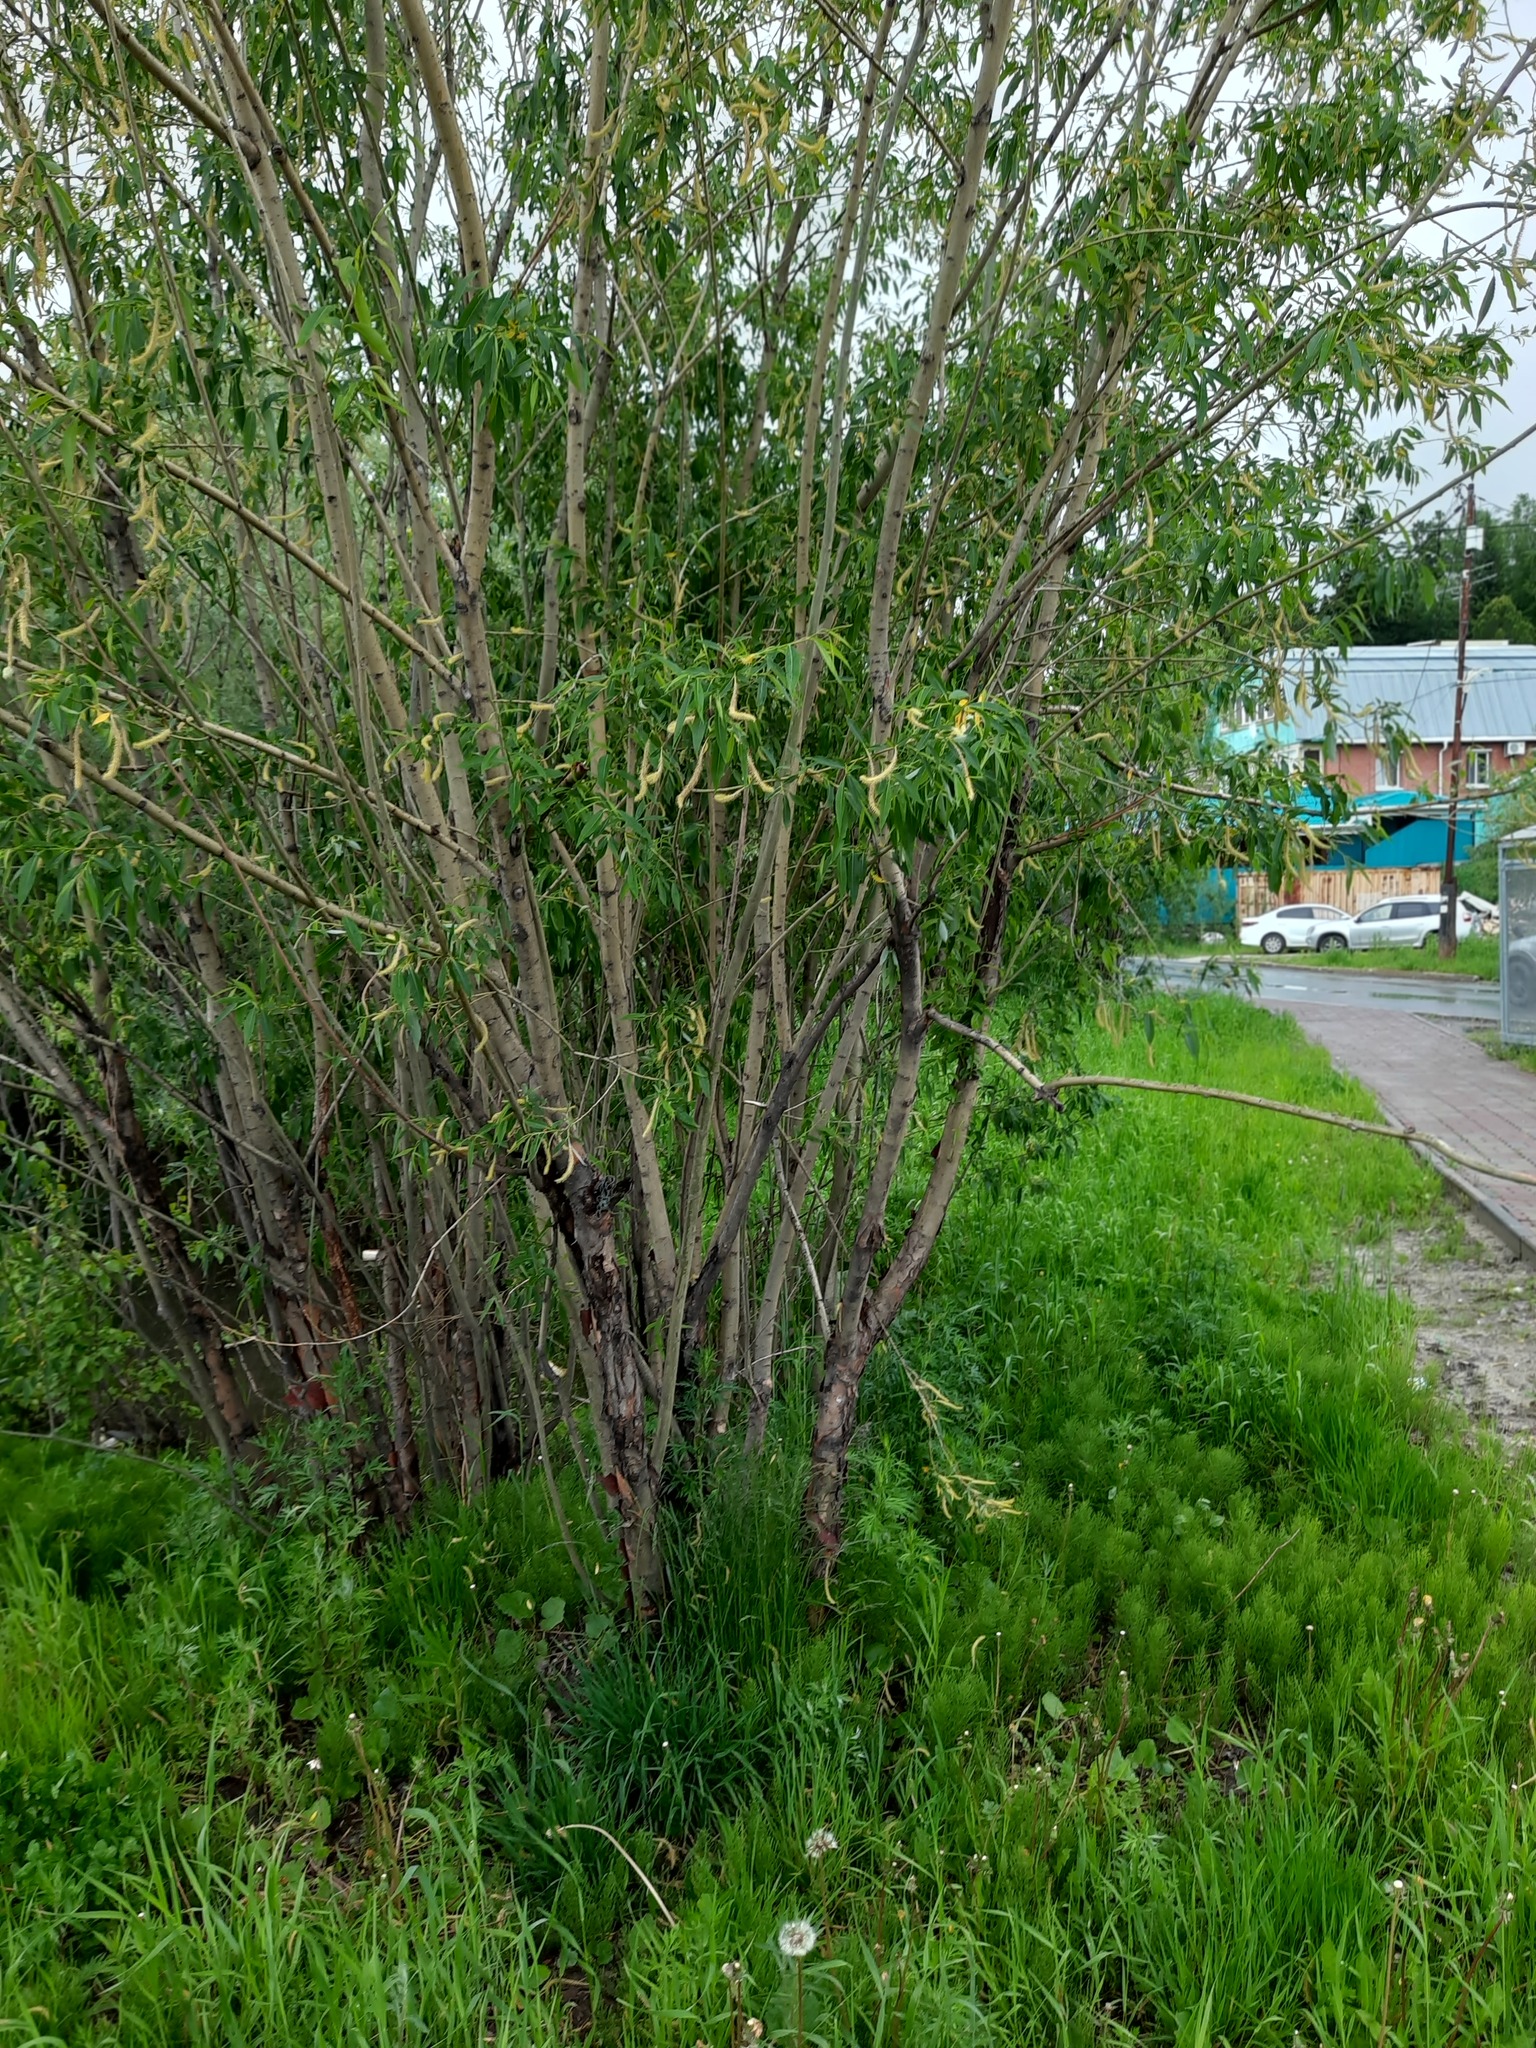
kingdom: Plantae
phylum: Tracheophyta
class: Magnoliopsida
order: Malpighiales
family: Salicaceae
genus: Salix
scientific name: Salix triandra
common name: Almond willow
